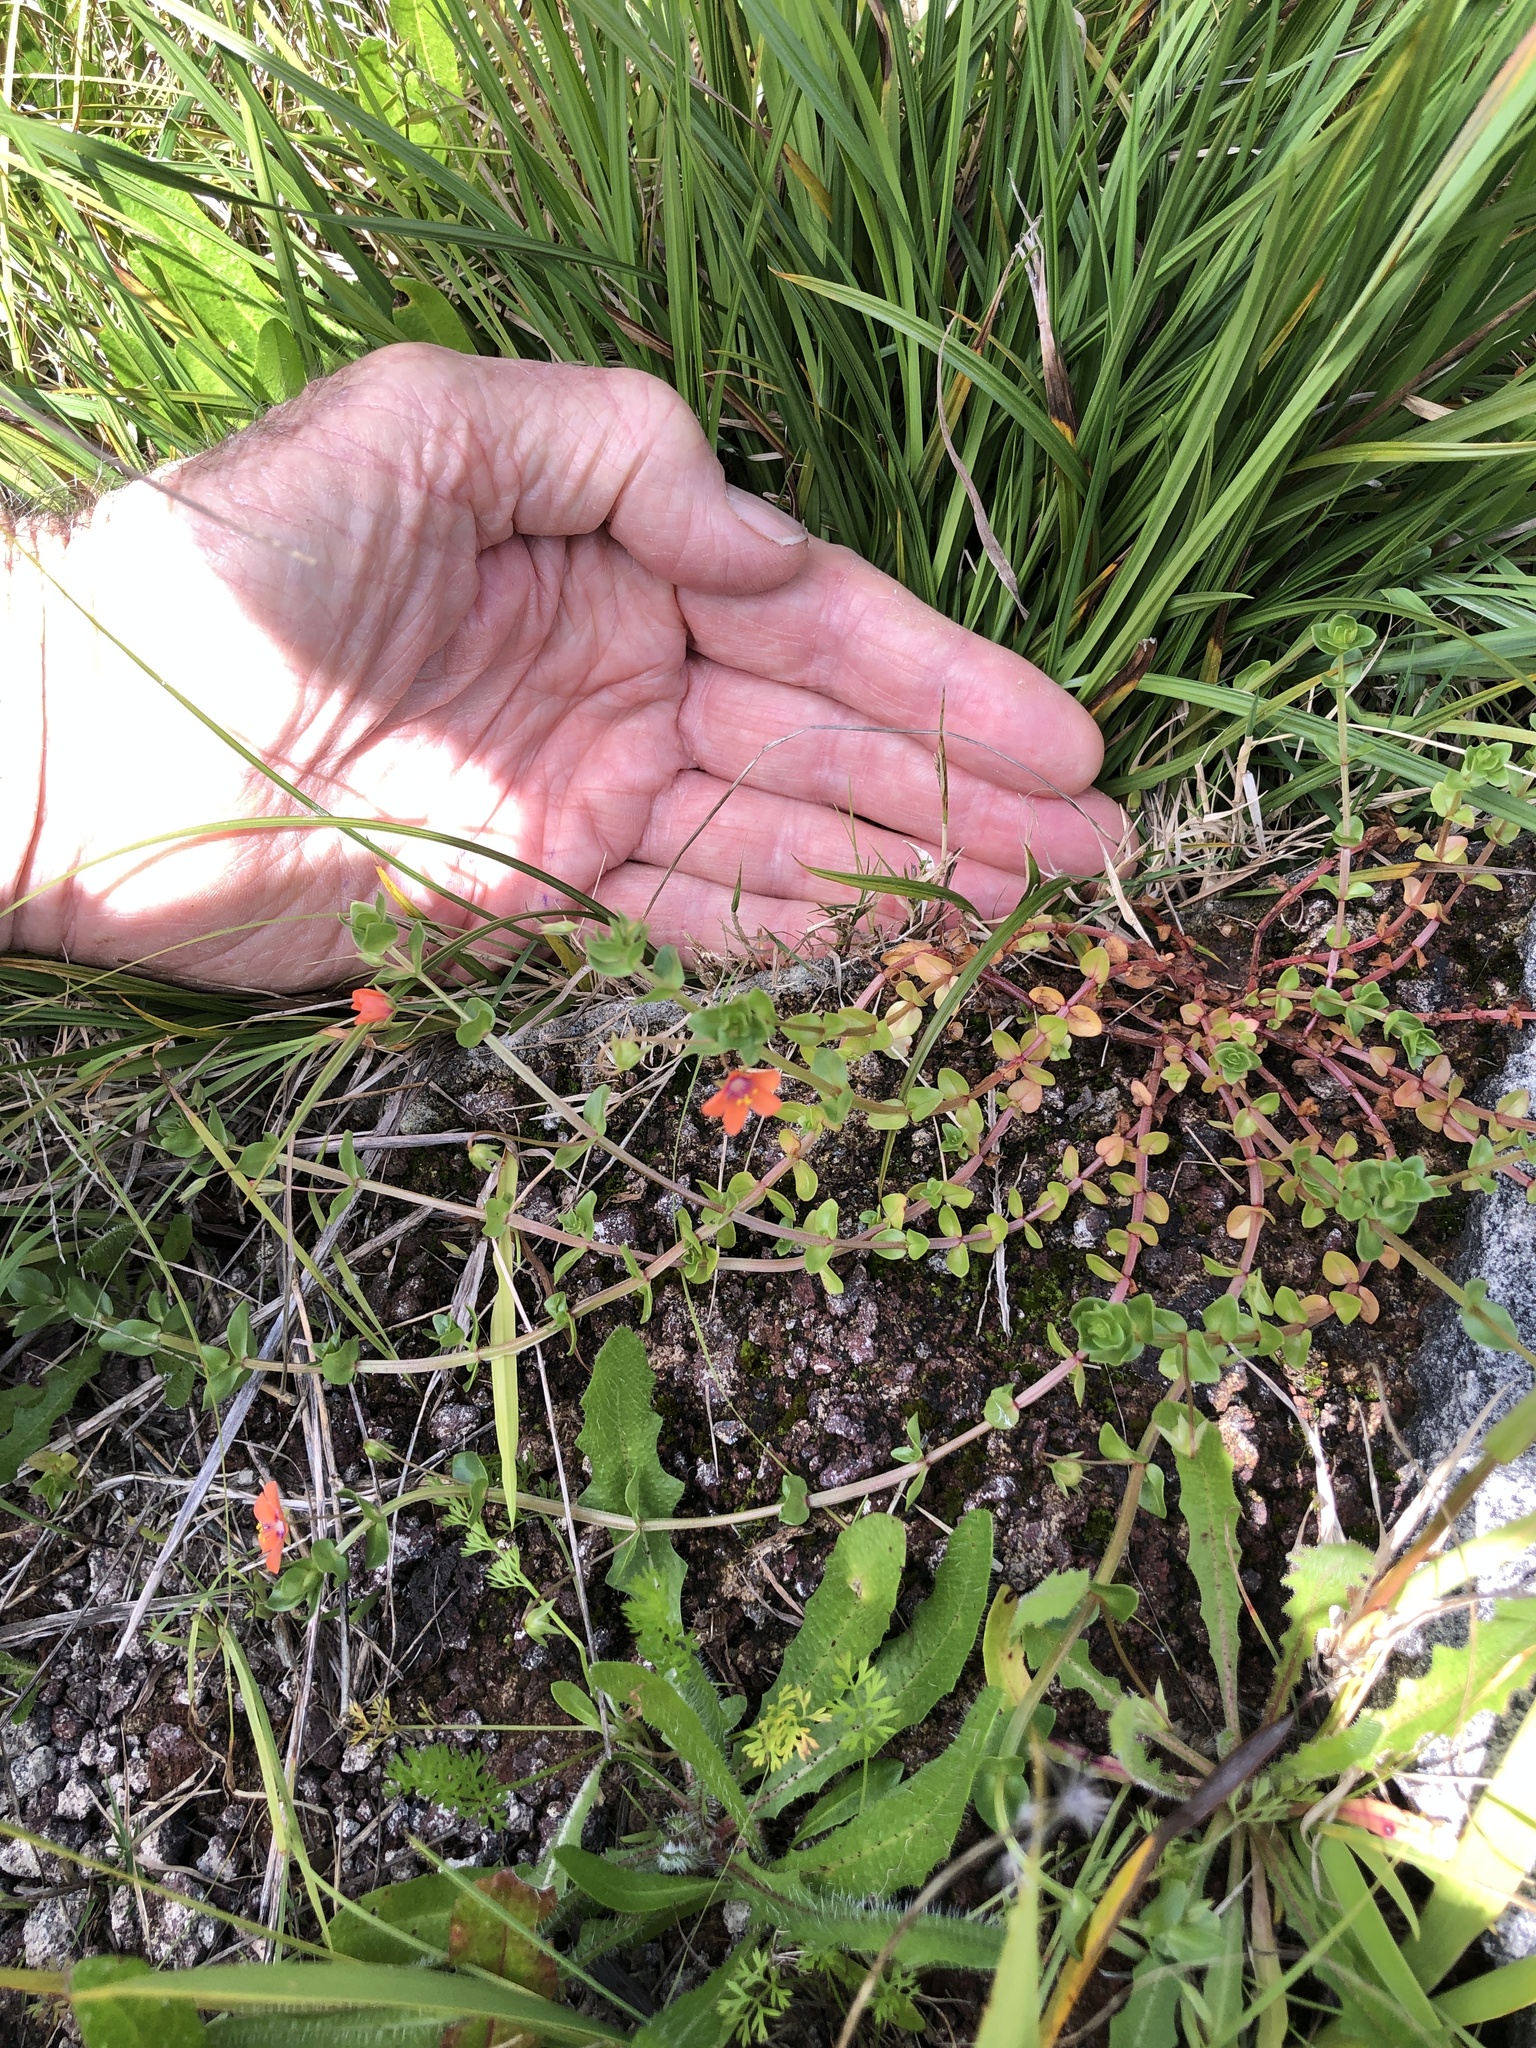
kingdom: Plantae
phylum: Tracheophyta
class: Magnoliopsida
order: Ericales
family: Primulaceae
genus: Lysimachia
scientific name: Lysimachia arvensis
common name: Scarlet pimpernel
